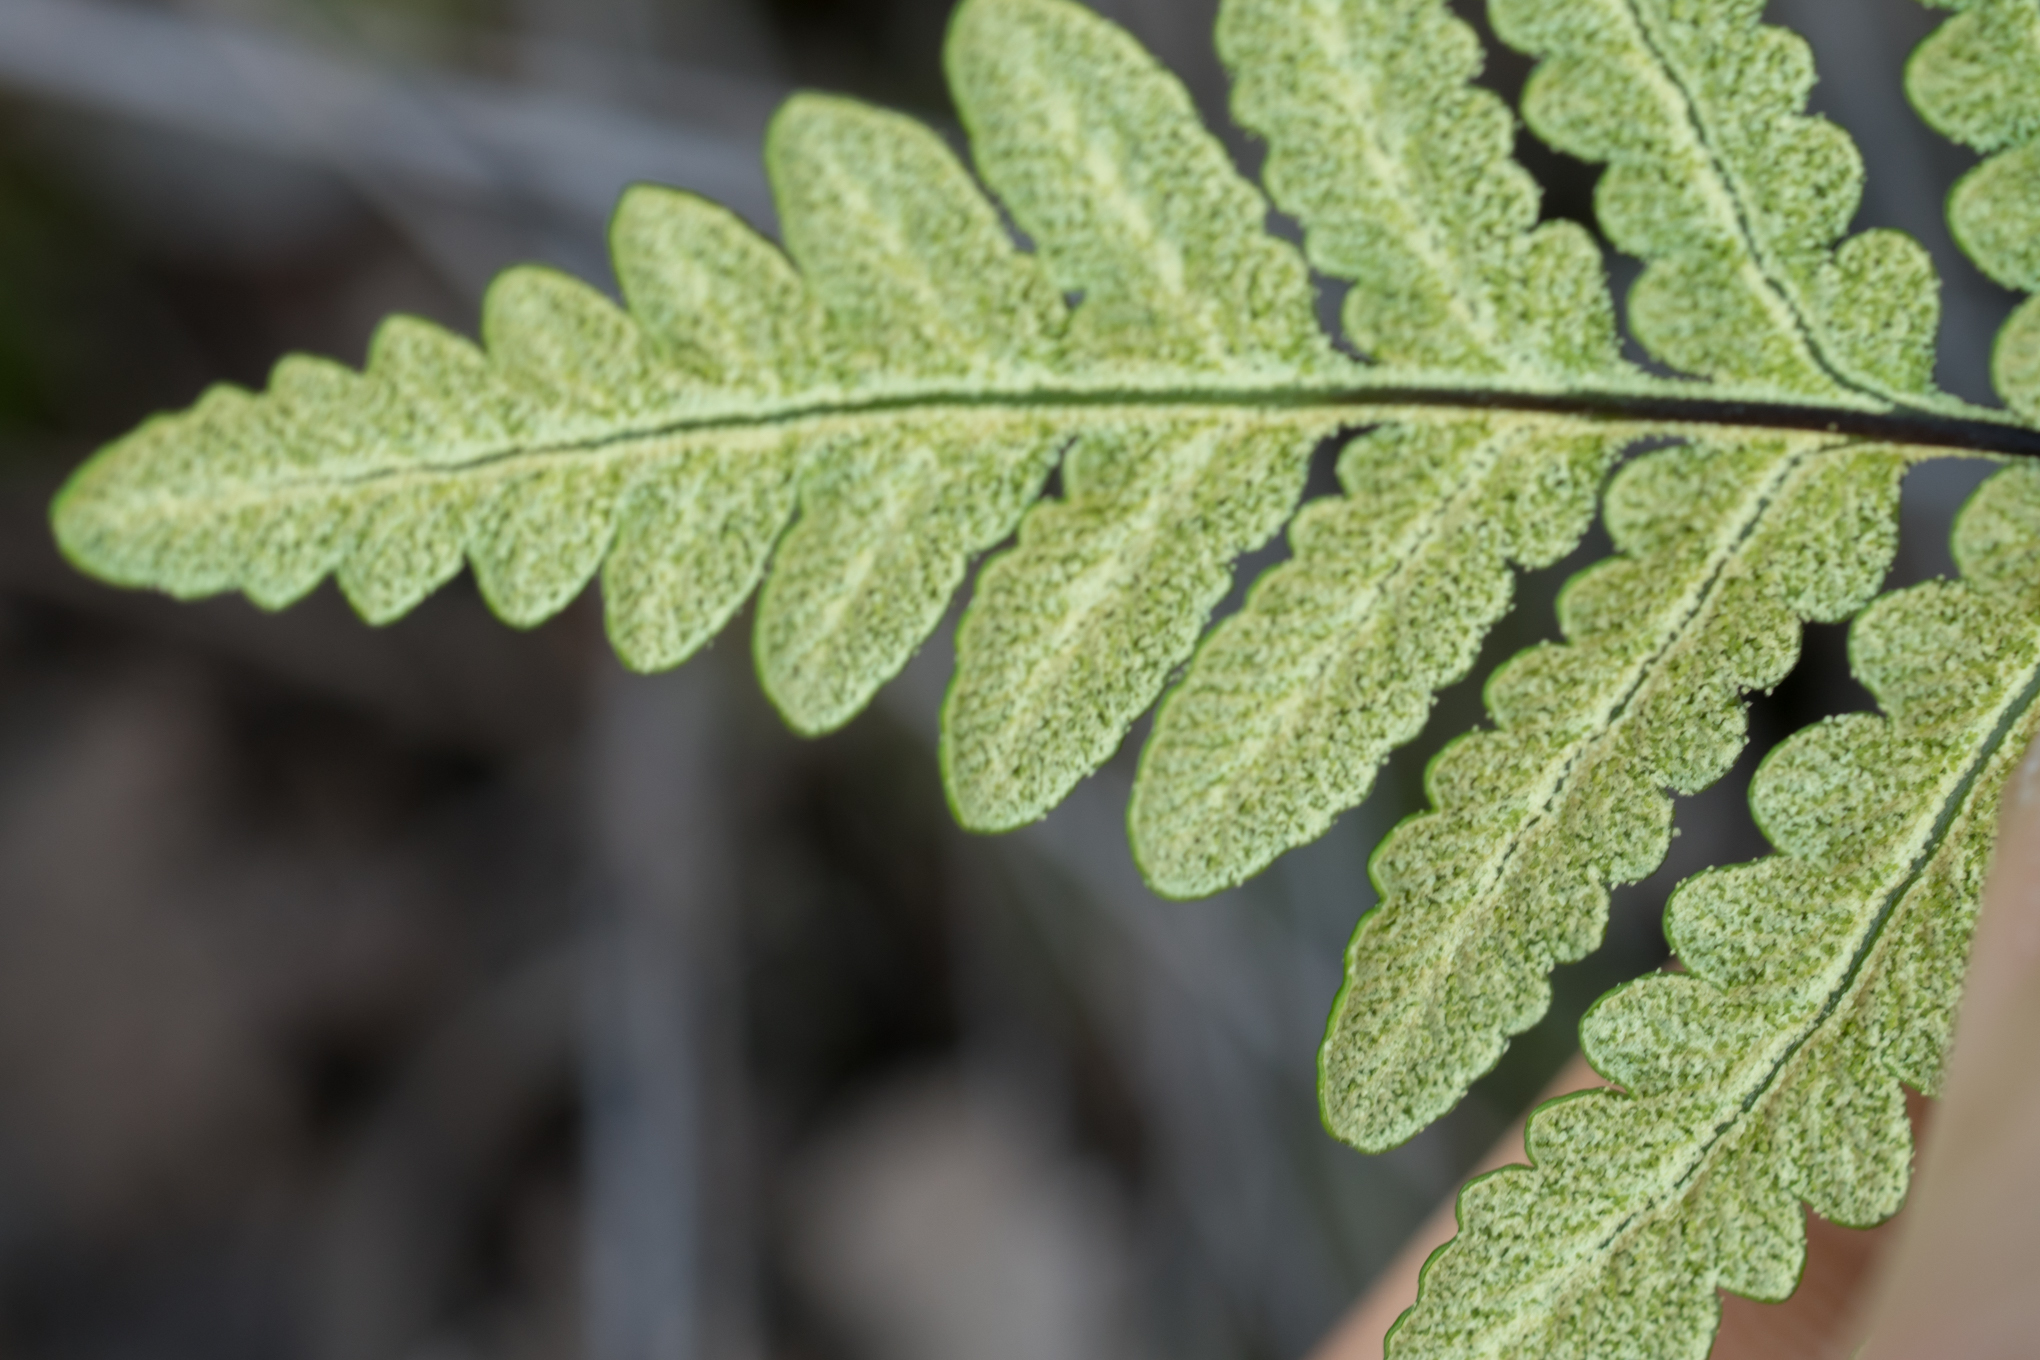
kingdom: Plantae
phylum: Tracheophyta
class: Polypodiopsida
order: Polypodiales
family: Pteridaceae
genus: Pentagramma
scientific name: Pentagramma triangularis
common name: Gold fern
